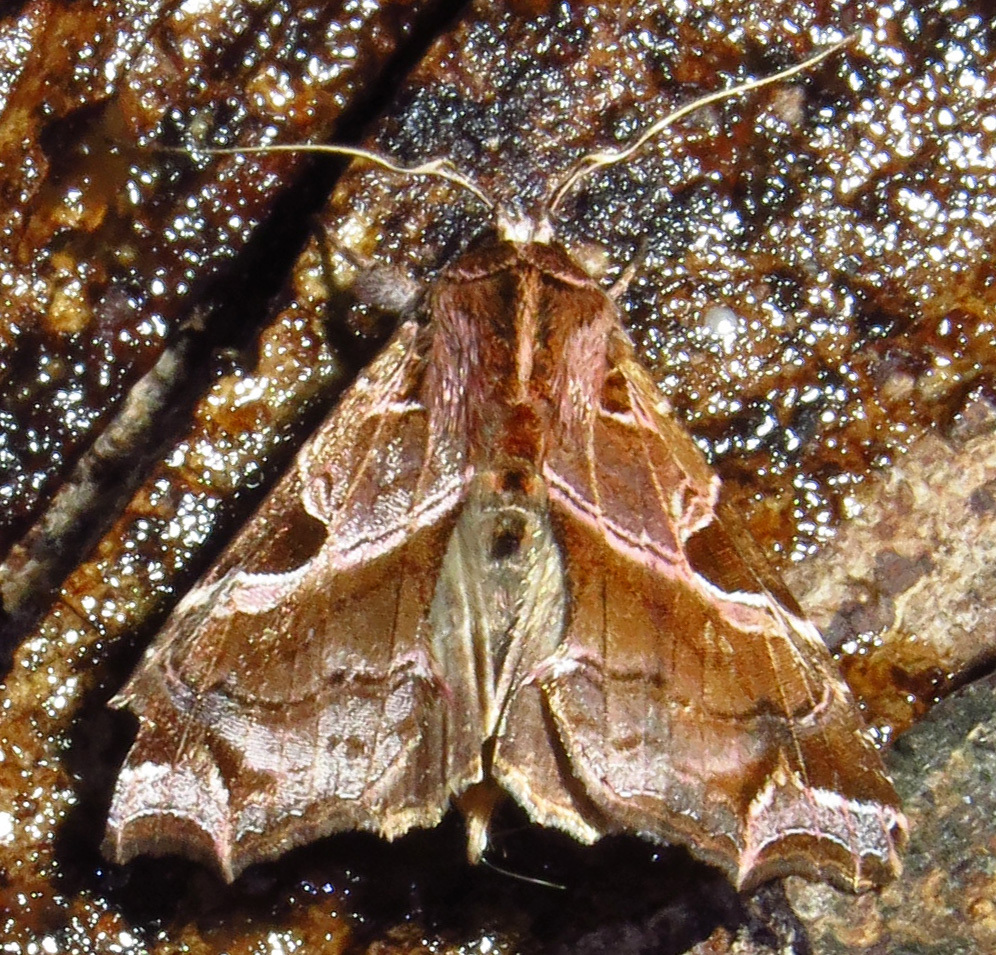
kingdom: Animalia
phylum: Arthropoda
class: Insecta
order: Lepidoptera
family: Noctuidae
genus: Callopistria
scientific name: Callopistria floridensis
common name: Florida fern moth
